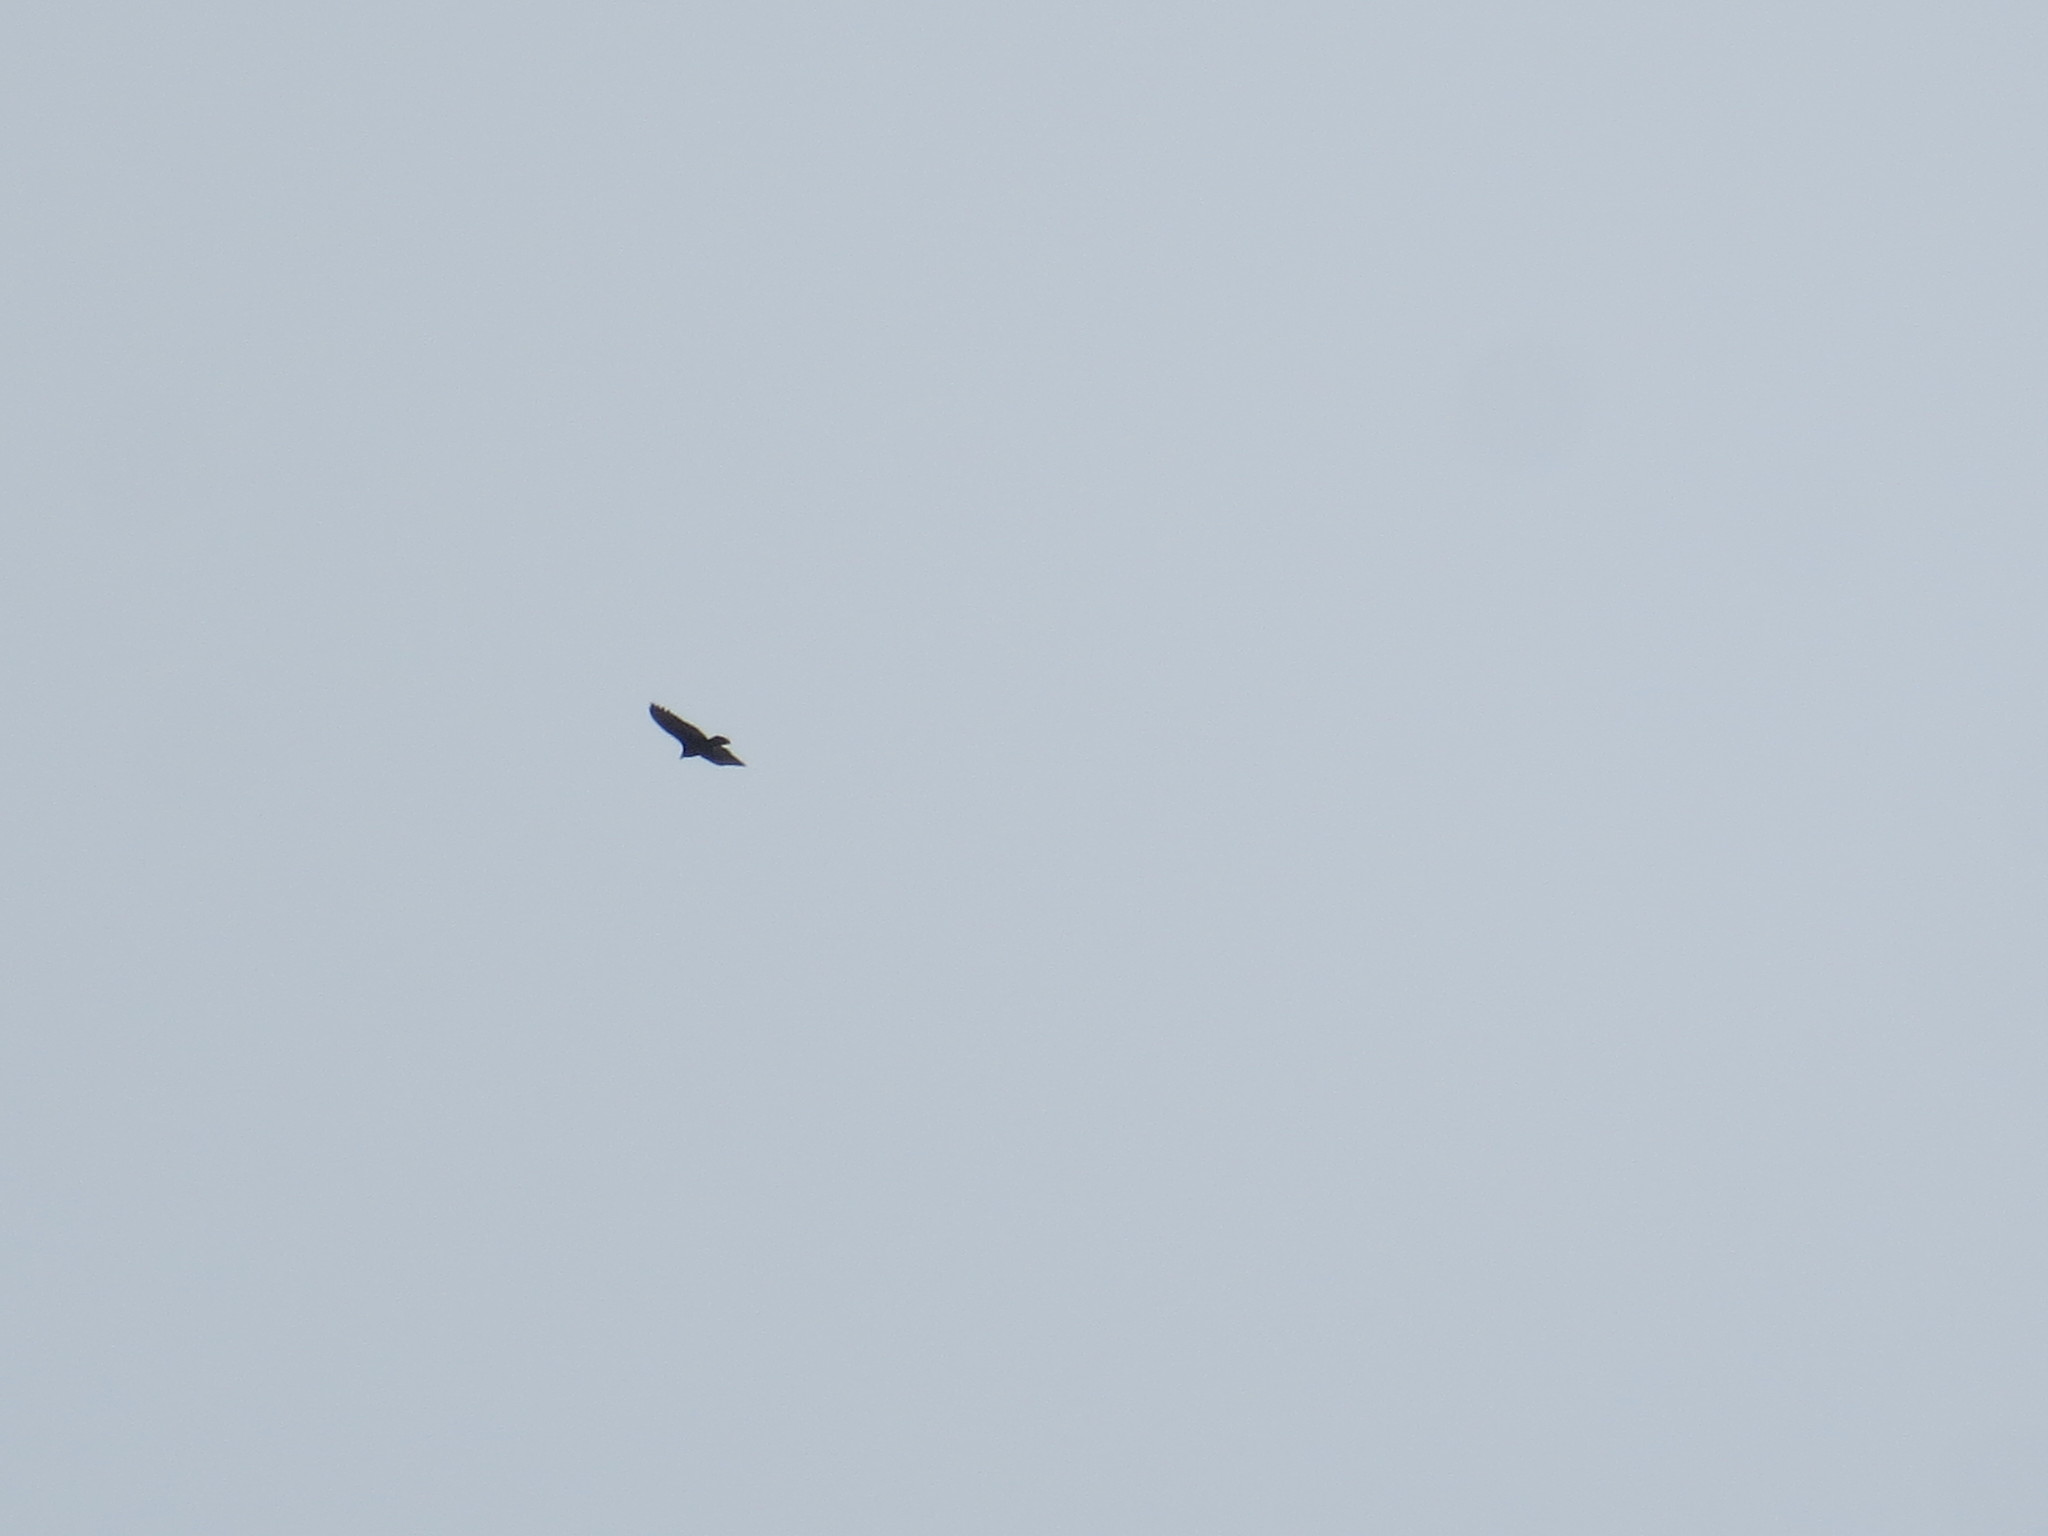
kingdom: Animalia
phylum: Chordata
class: Aves
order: Accipitriformes
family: Cathartidae
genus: Cathartes
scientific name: Cathartes aura
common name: Turkey vulture
